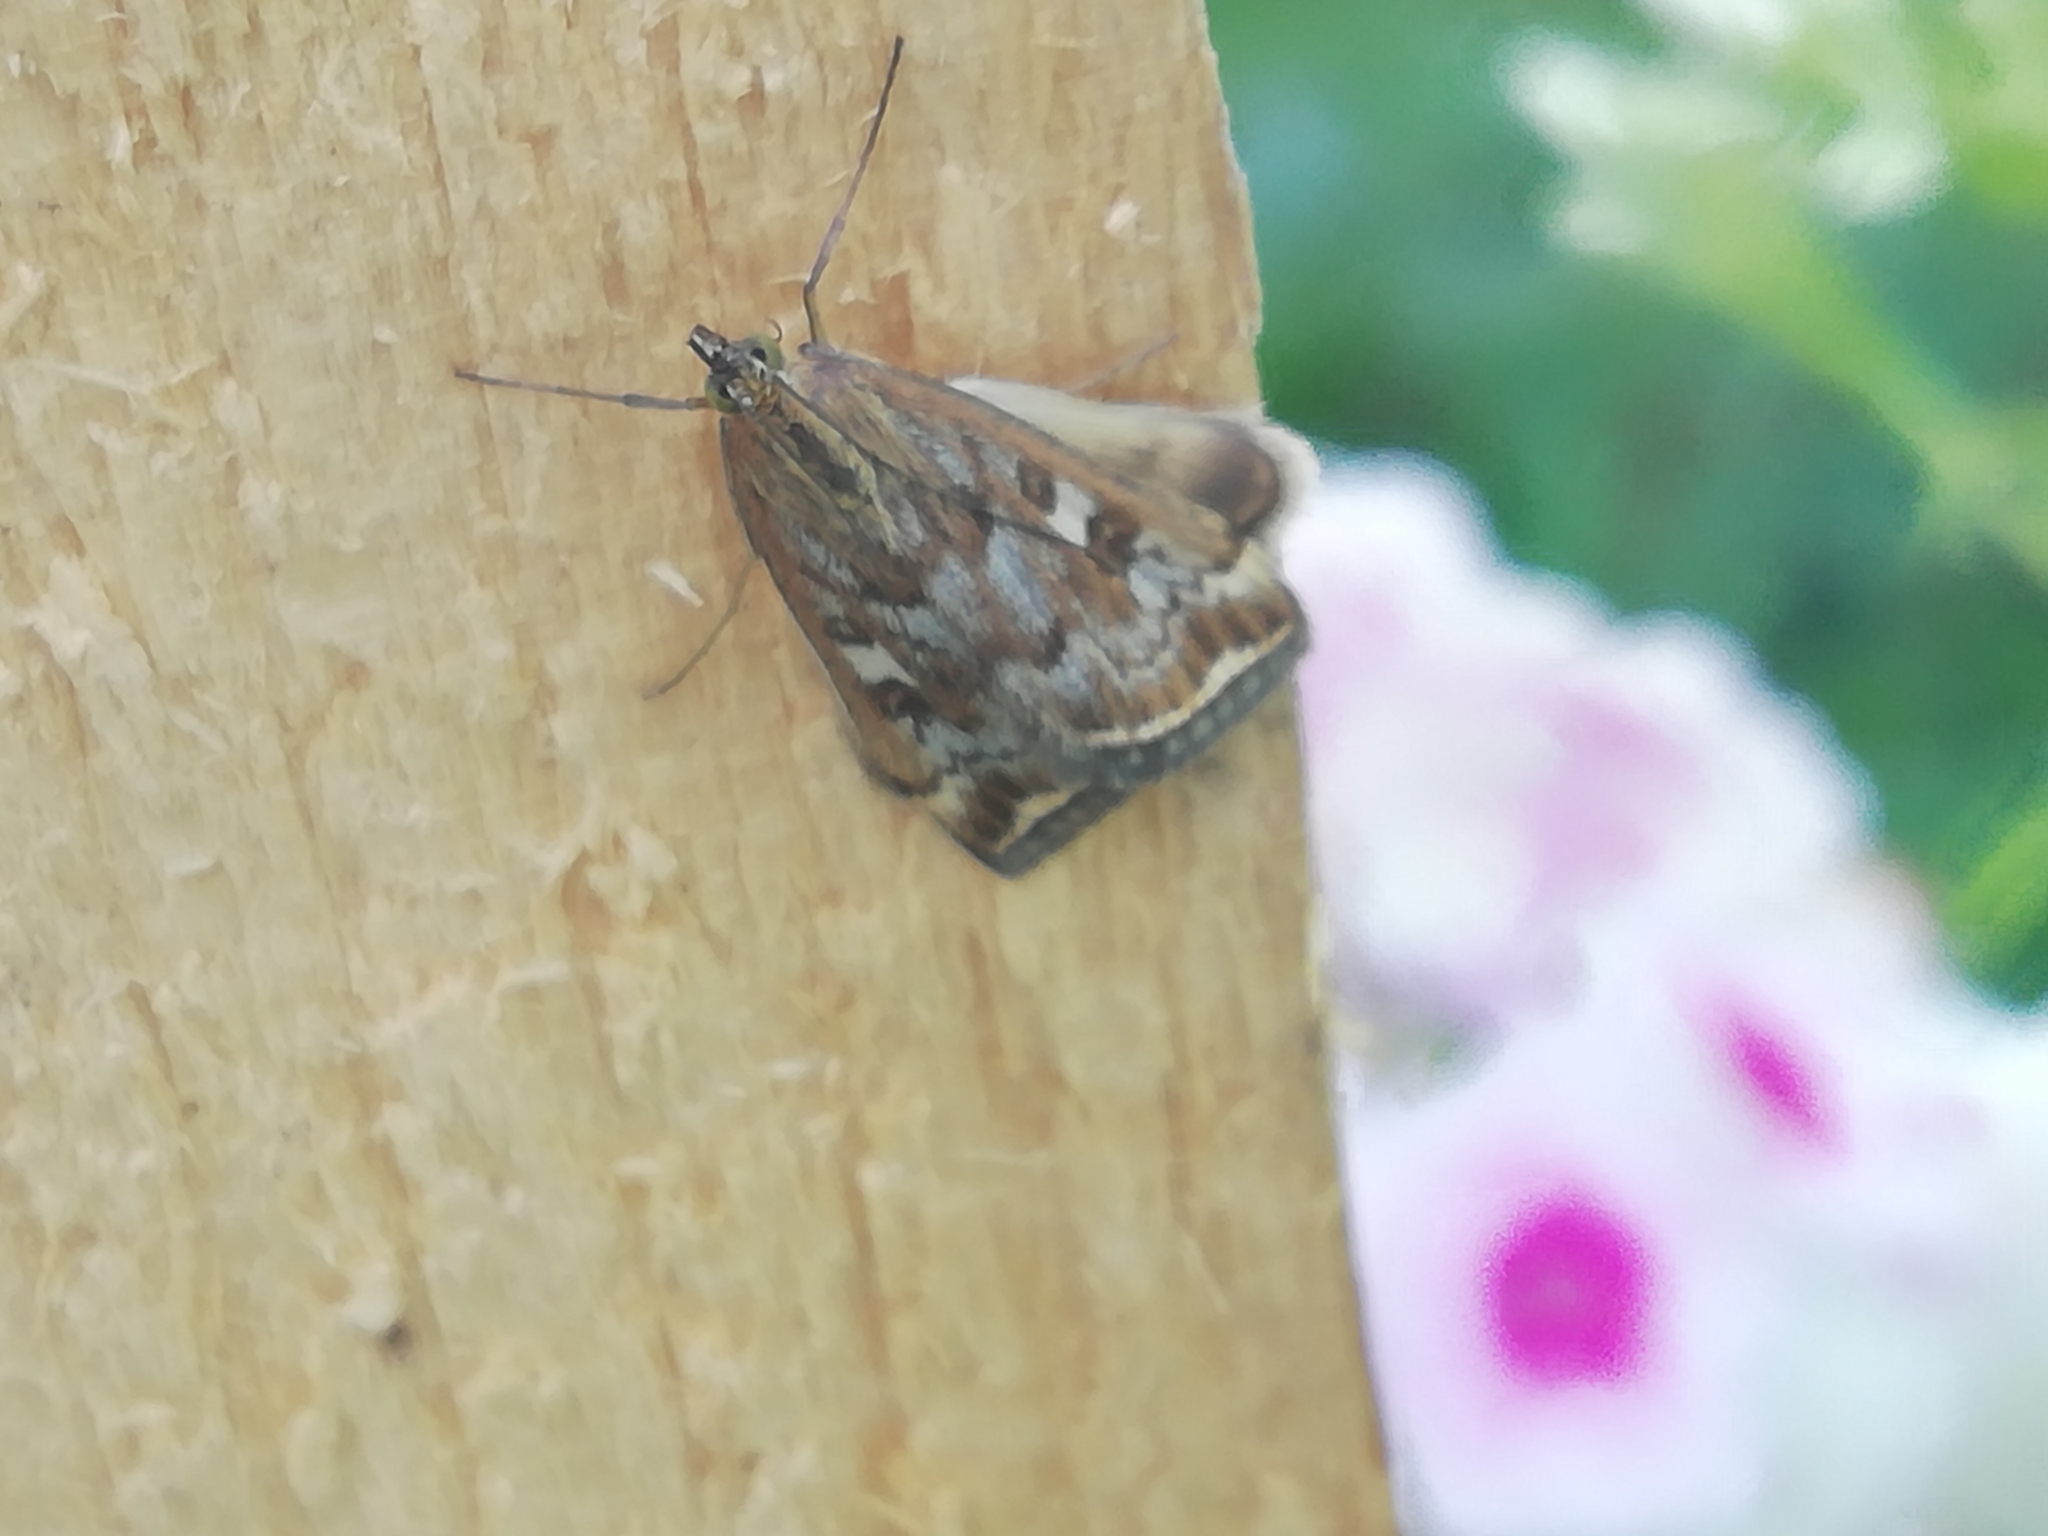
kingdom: Animalia
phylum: Arthropoda
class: Insecta
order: Lepidoptera
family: Crambidae
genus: Loxostege
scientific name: Loxostege sticticalis
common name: Crambid moth
